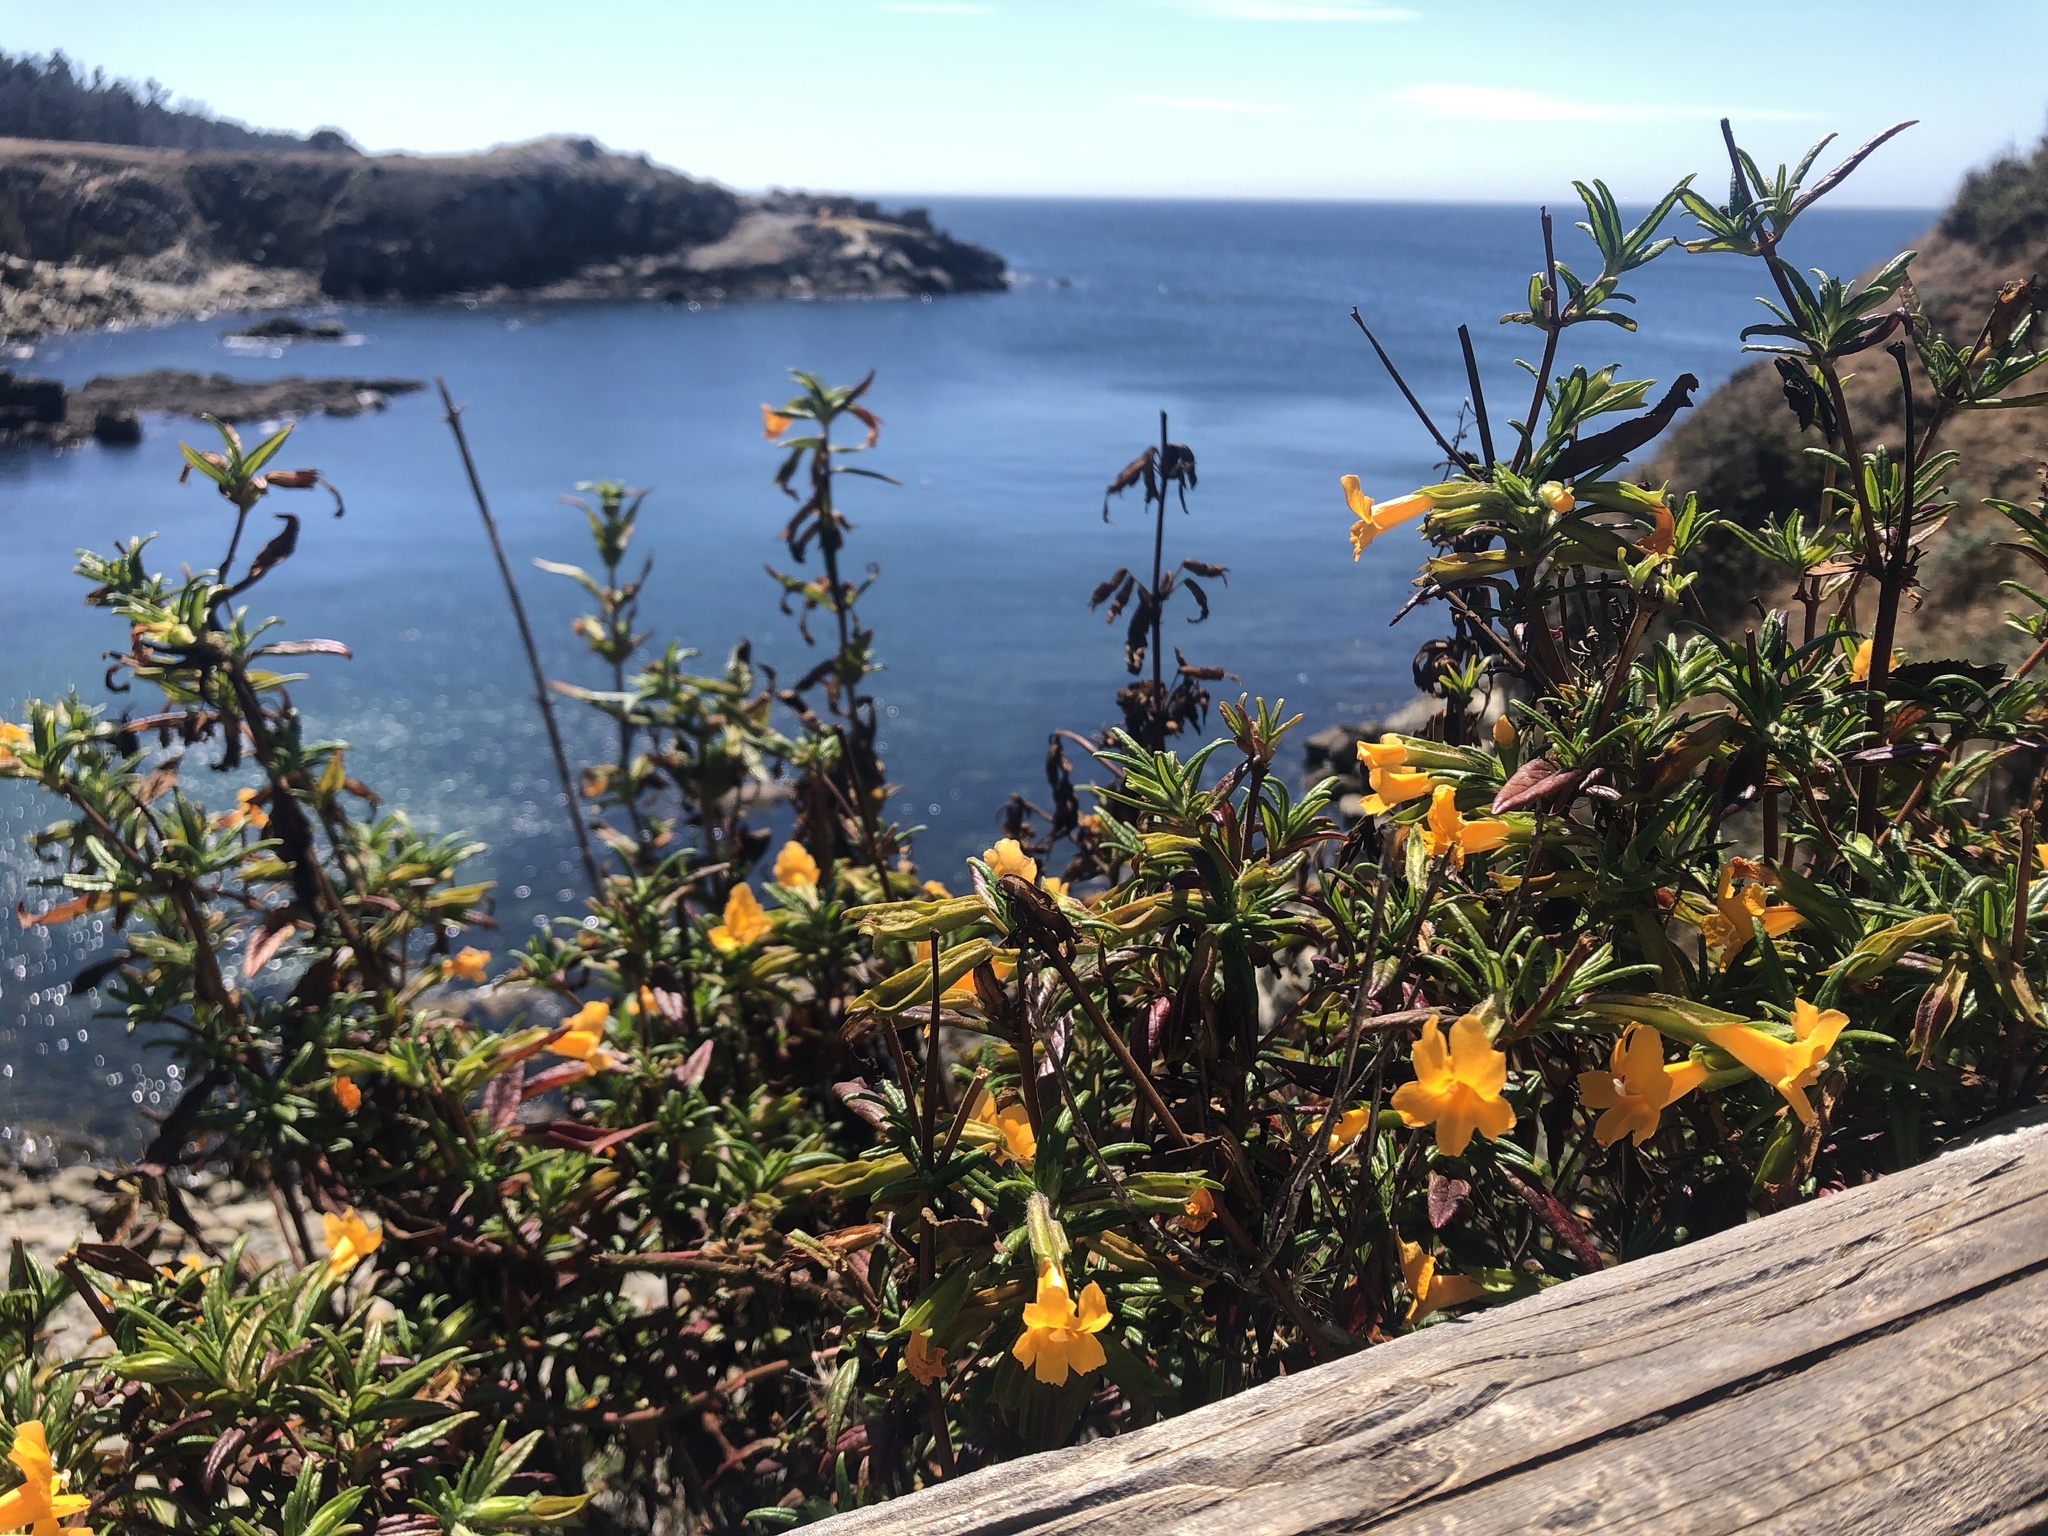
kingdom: Plantae
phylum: Tracheophyta
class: Magnoliopsida
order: Lamiales
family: Phrymaceae
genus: Diplacus
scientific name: Diplacus aurantiacus
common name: Bush monkey-flower
